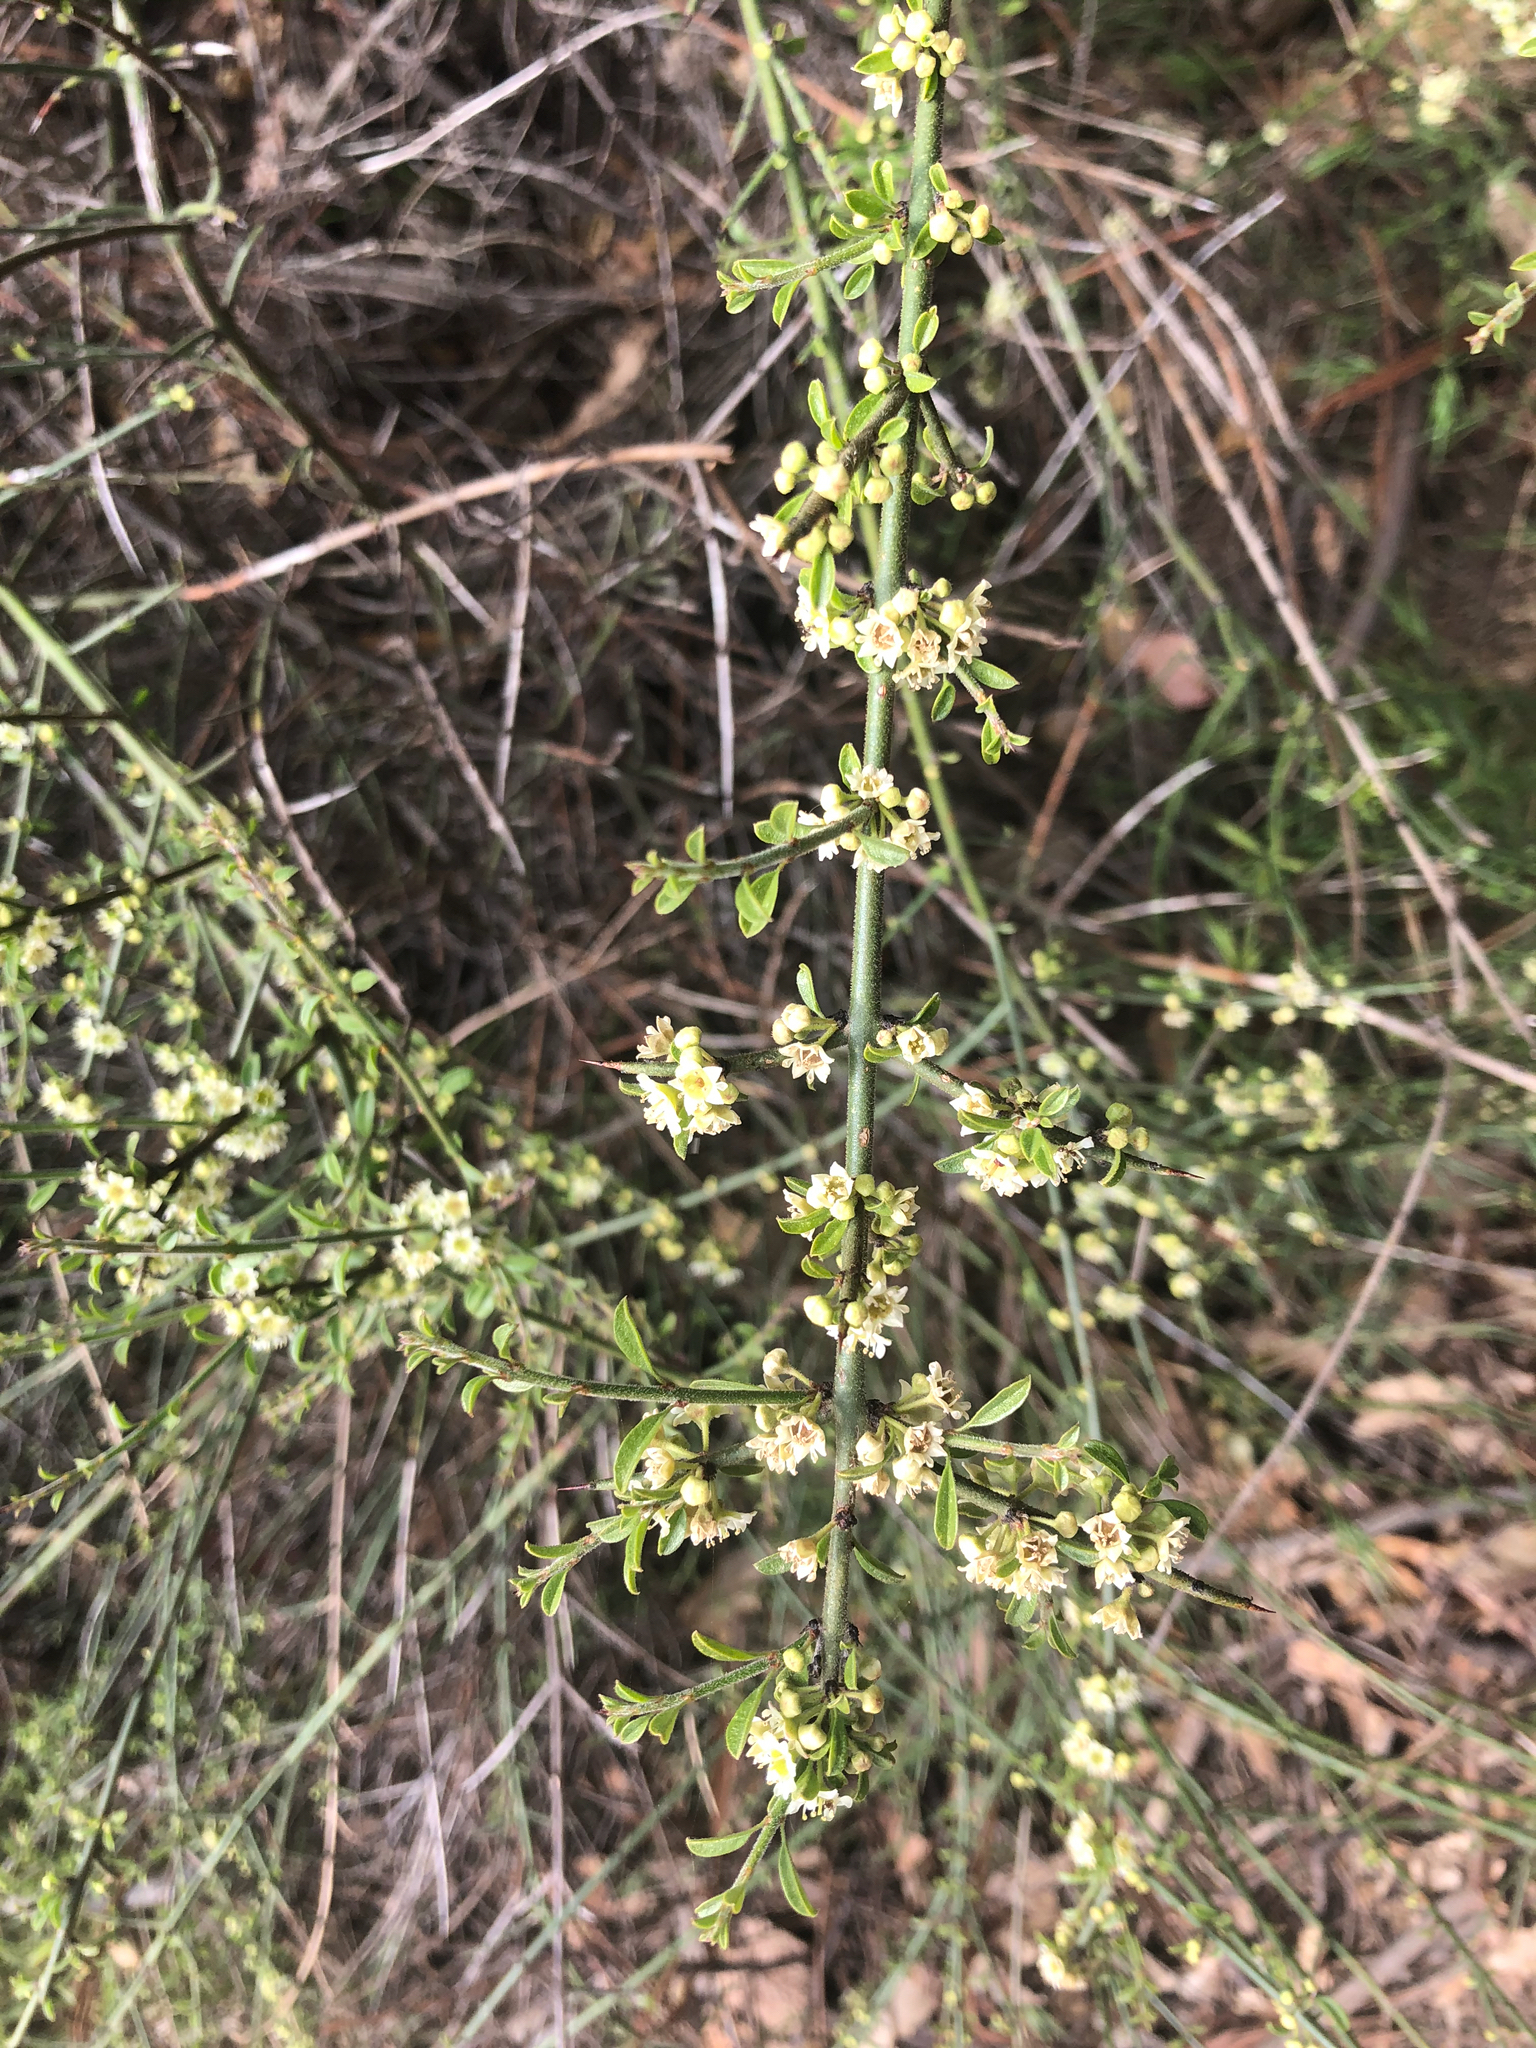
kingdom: Plantae
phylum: Tracheophyta
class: Magnoliopsida
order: Rosales
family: Rhamnaceae
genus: Adolphia
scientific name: Adolphia californica
